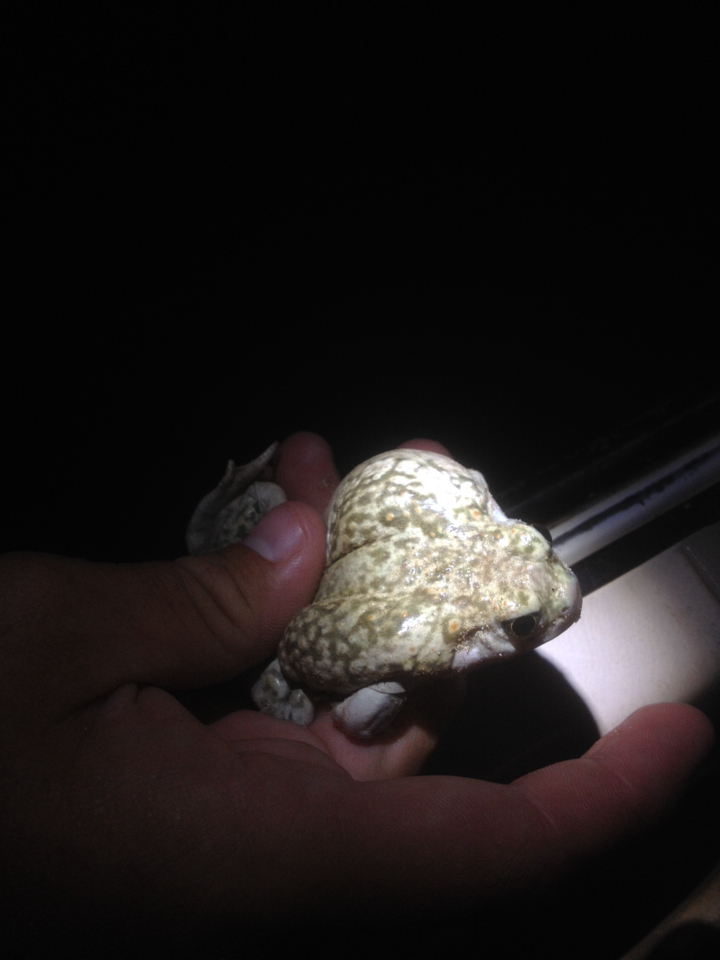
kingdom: Animalia
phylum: Chordata
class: Amphibia
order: Anura
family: Scaphiopodidae
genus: Spea
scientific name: Spea bombifrons
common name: Plains spadefoot
